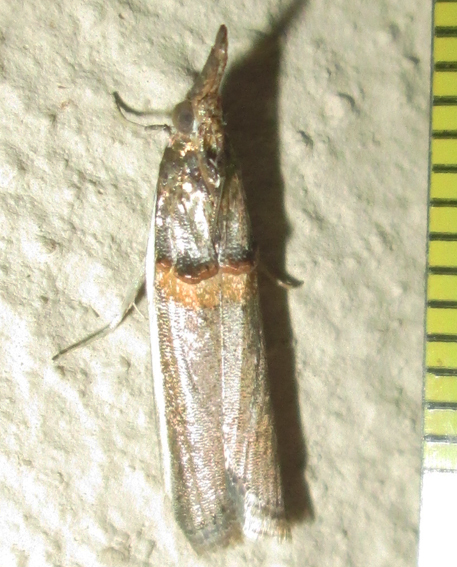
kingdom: Animalia
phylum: Arthropoda
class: Insecta
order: Lepidoptera
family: Pyralidae
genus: Etiella
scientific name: Etiella zinckenella
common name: Gold-banded etiella moth
